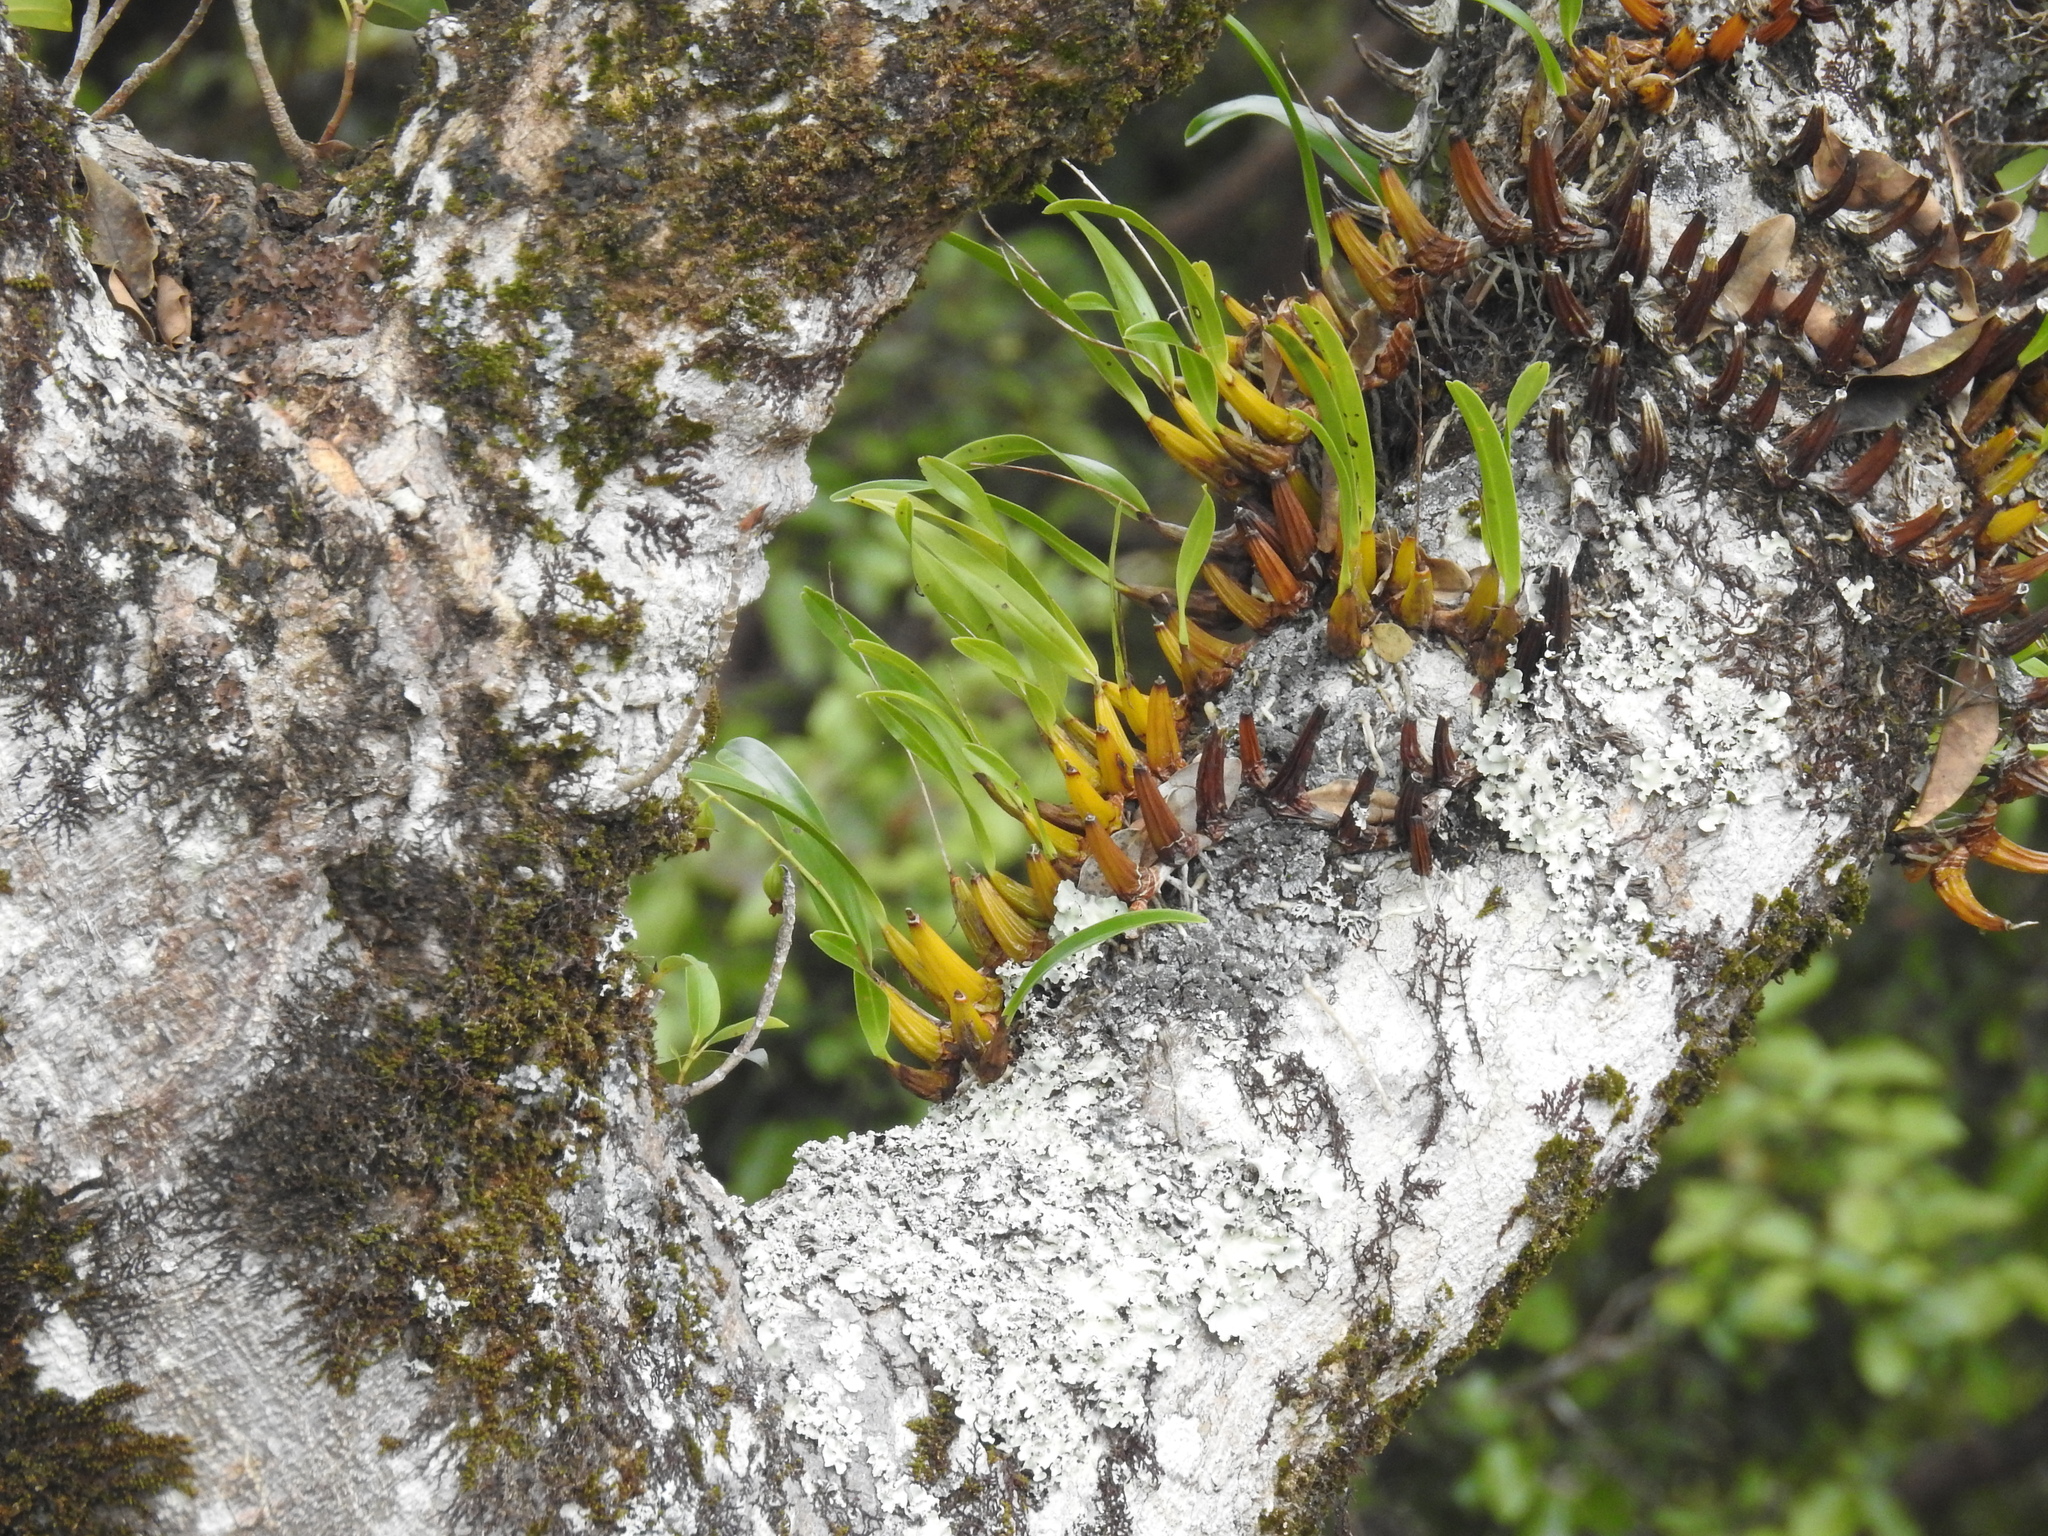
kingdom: Plantae
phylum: Tracheophyta
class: Liliopsida
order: Asparagales
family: Orchidaceae
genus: Dendrobium
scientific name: Dendrobium monophyllum
